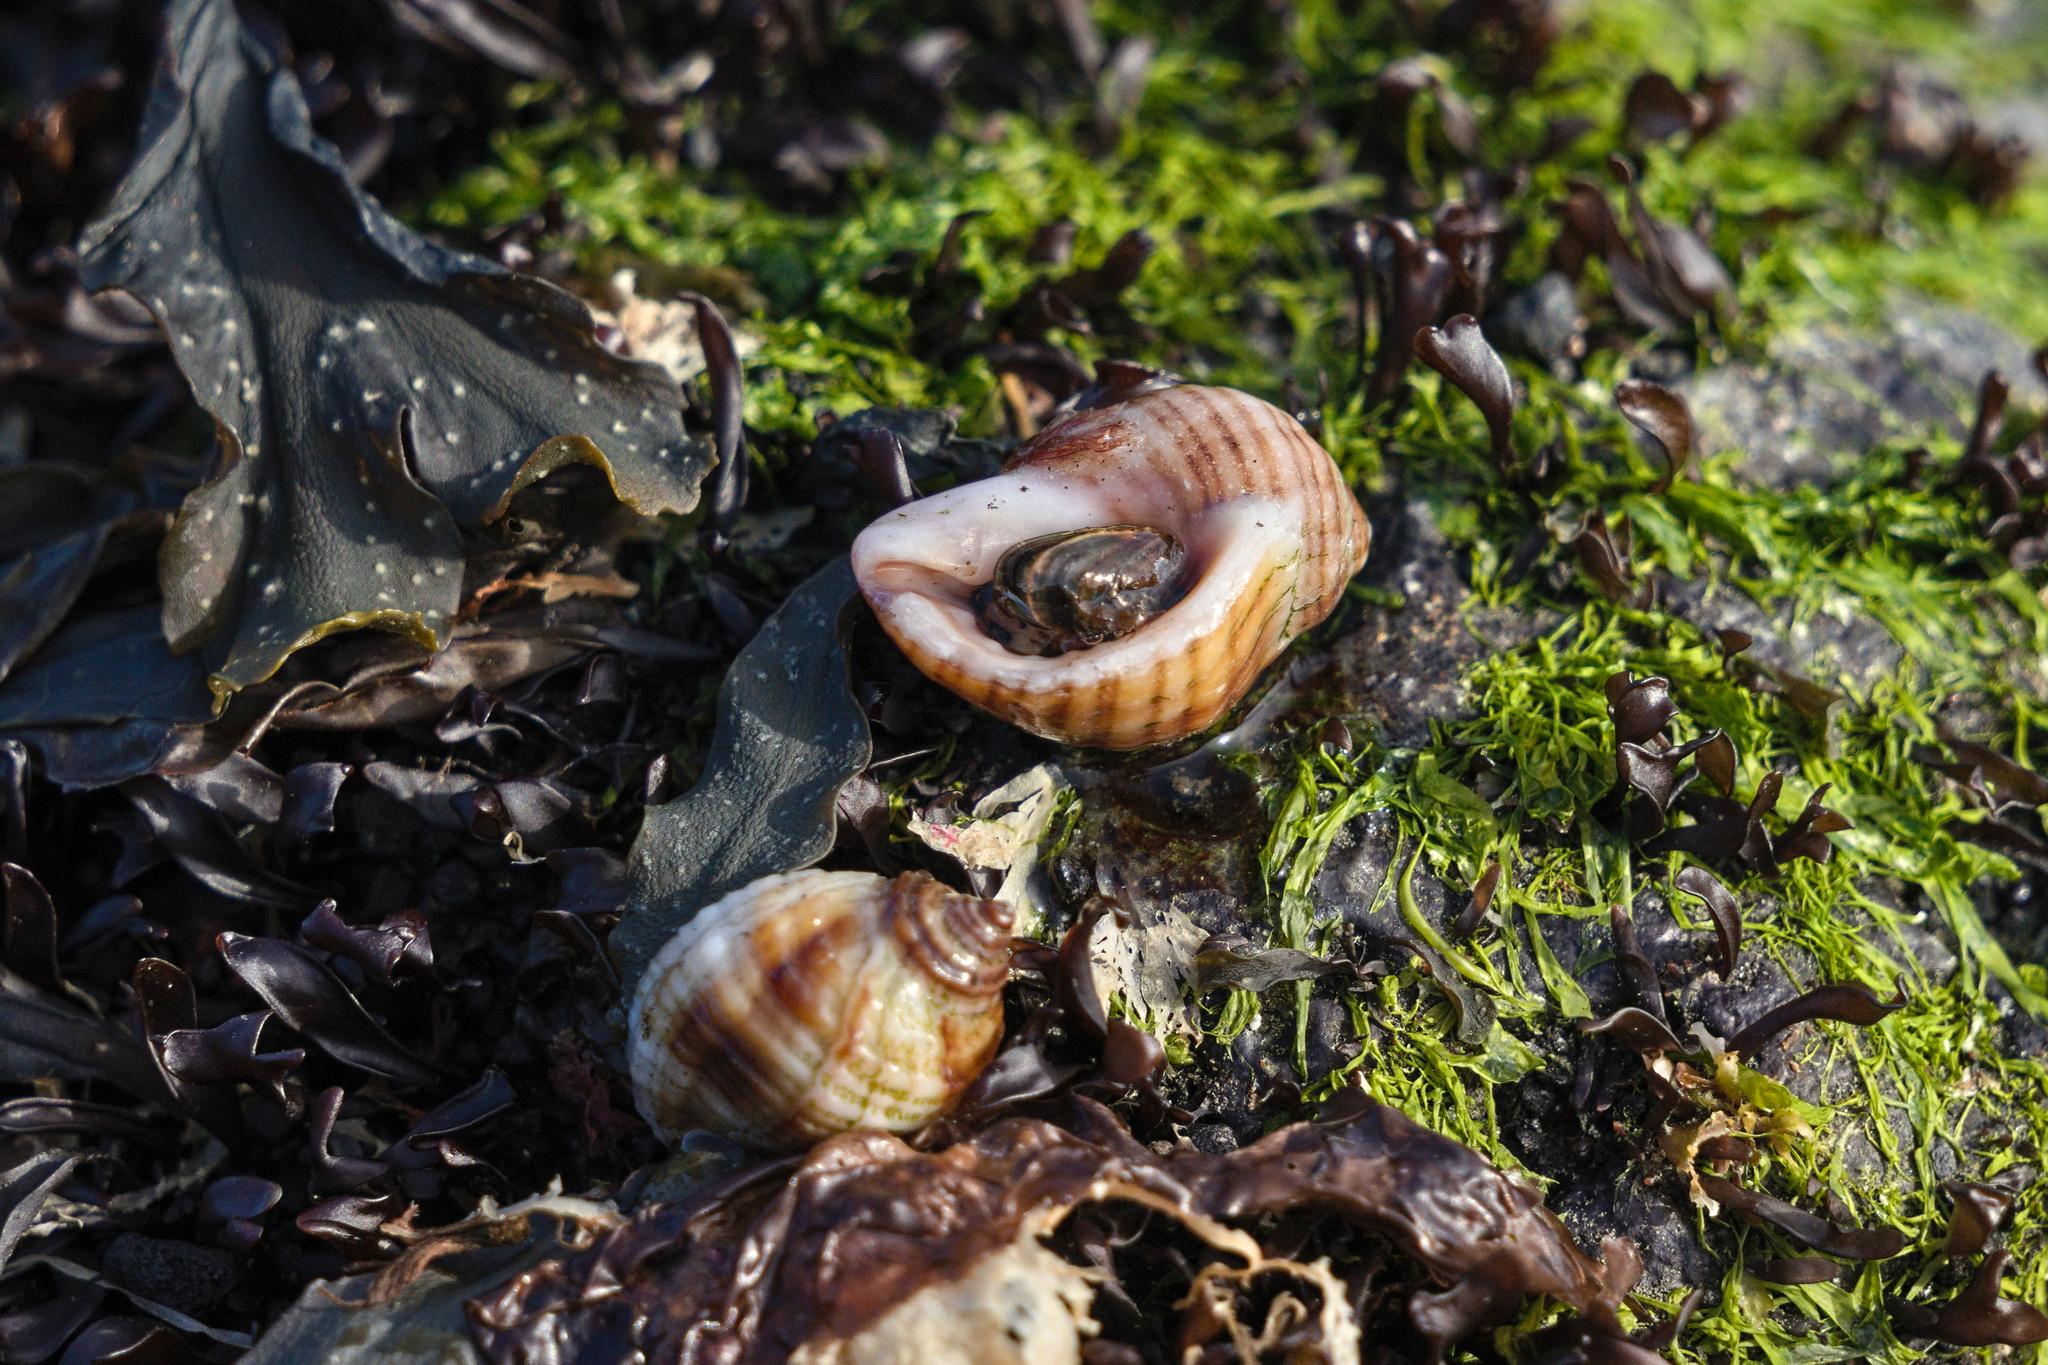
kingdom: Animalia
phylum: Mollusca
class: Gastropoda
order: Neogastropoda
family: Muricidae
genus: Nucella
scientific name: Nucella lapillus
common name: Dog whelk
